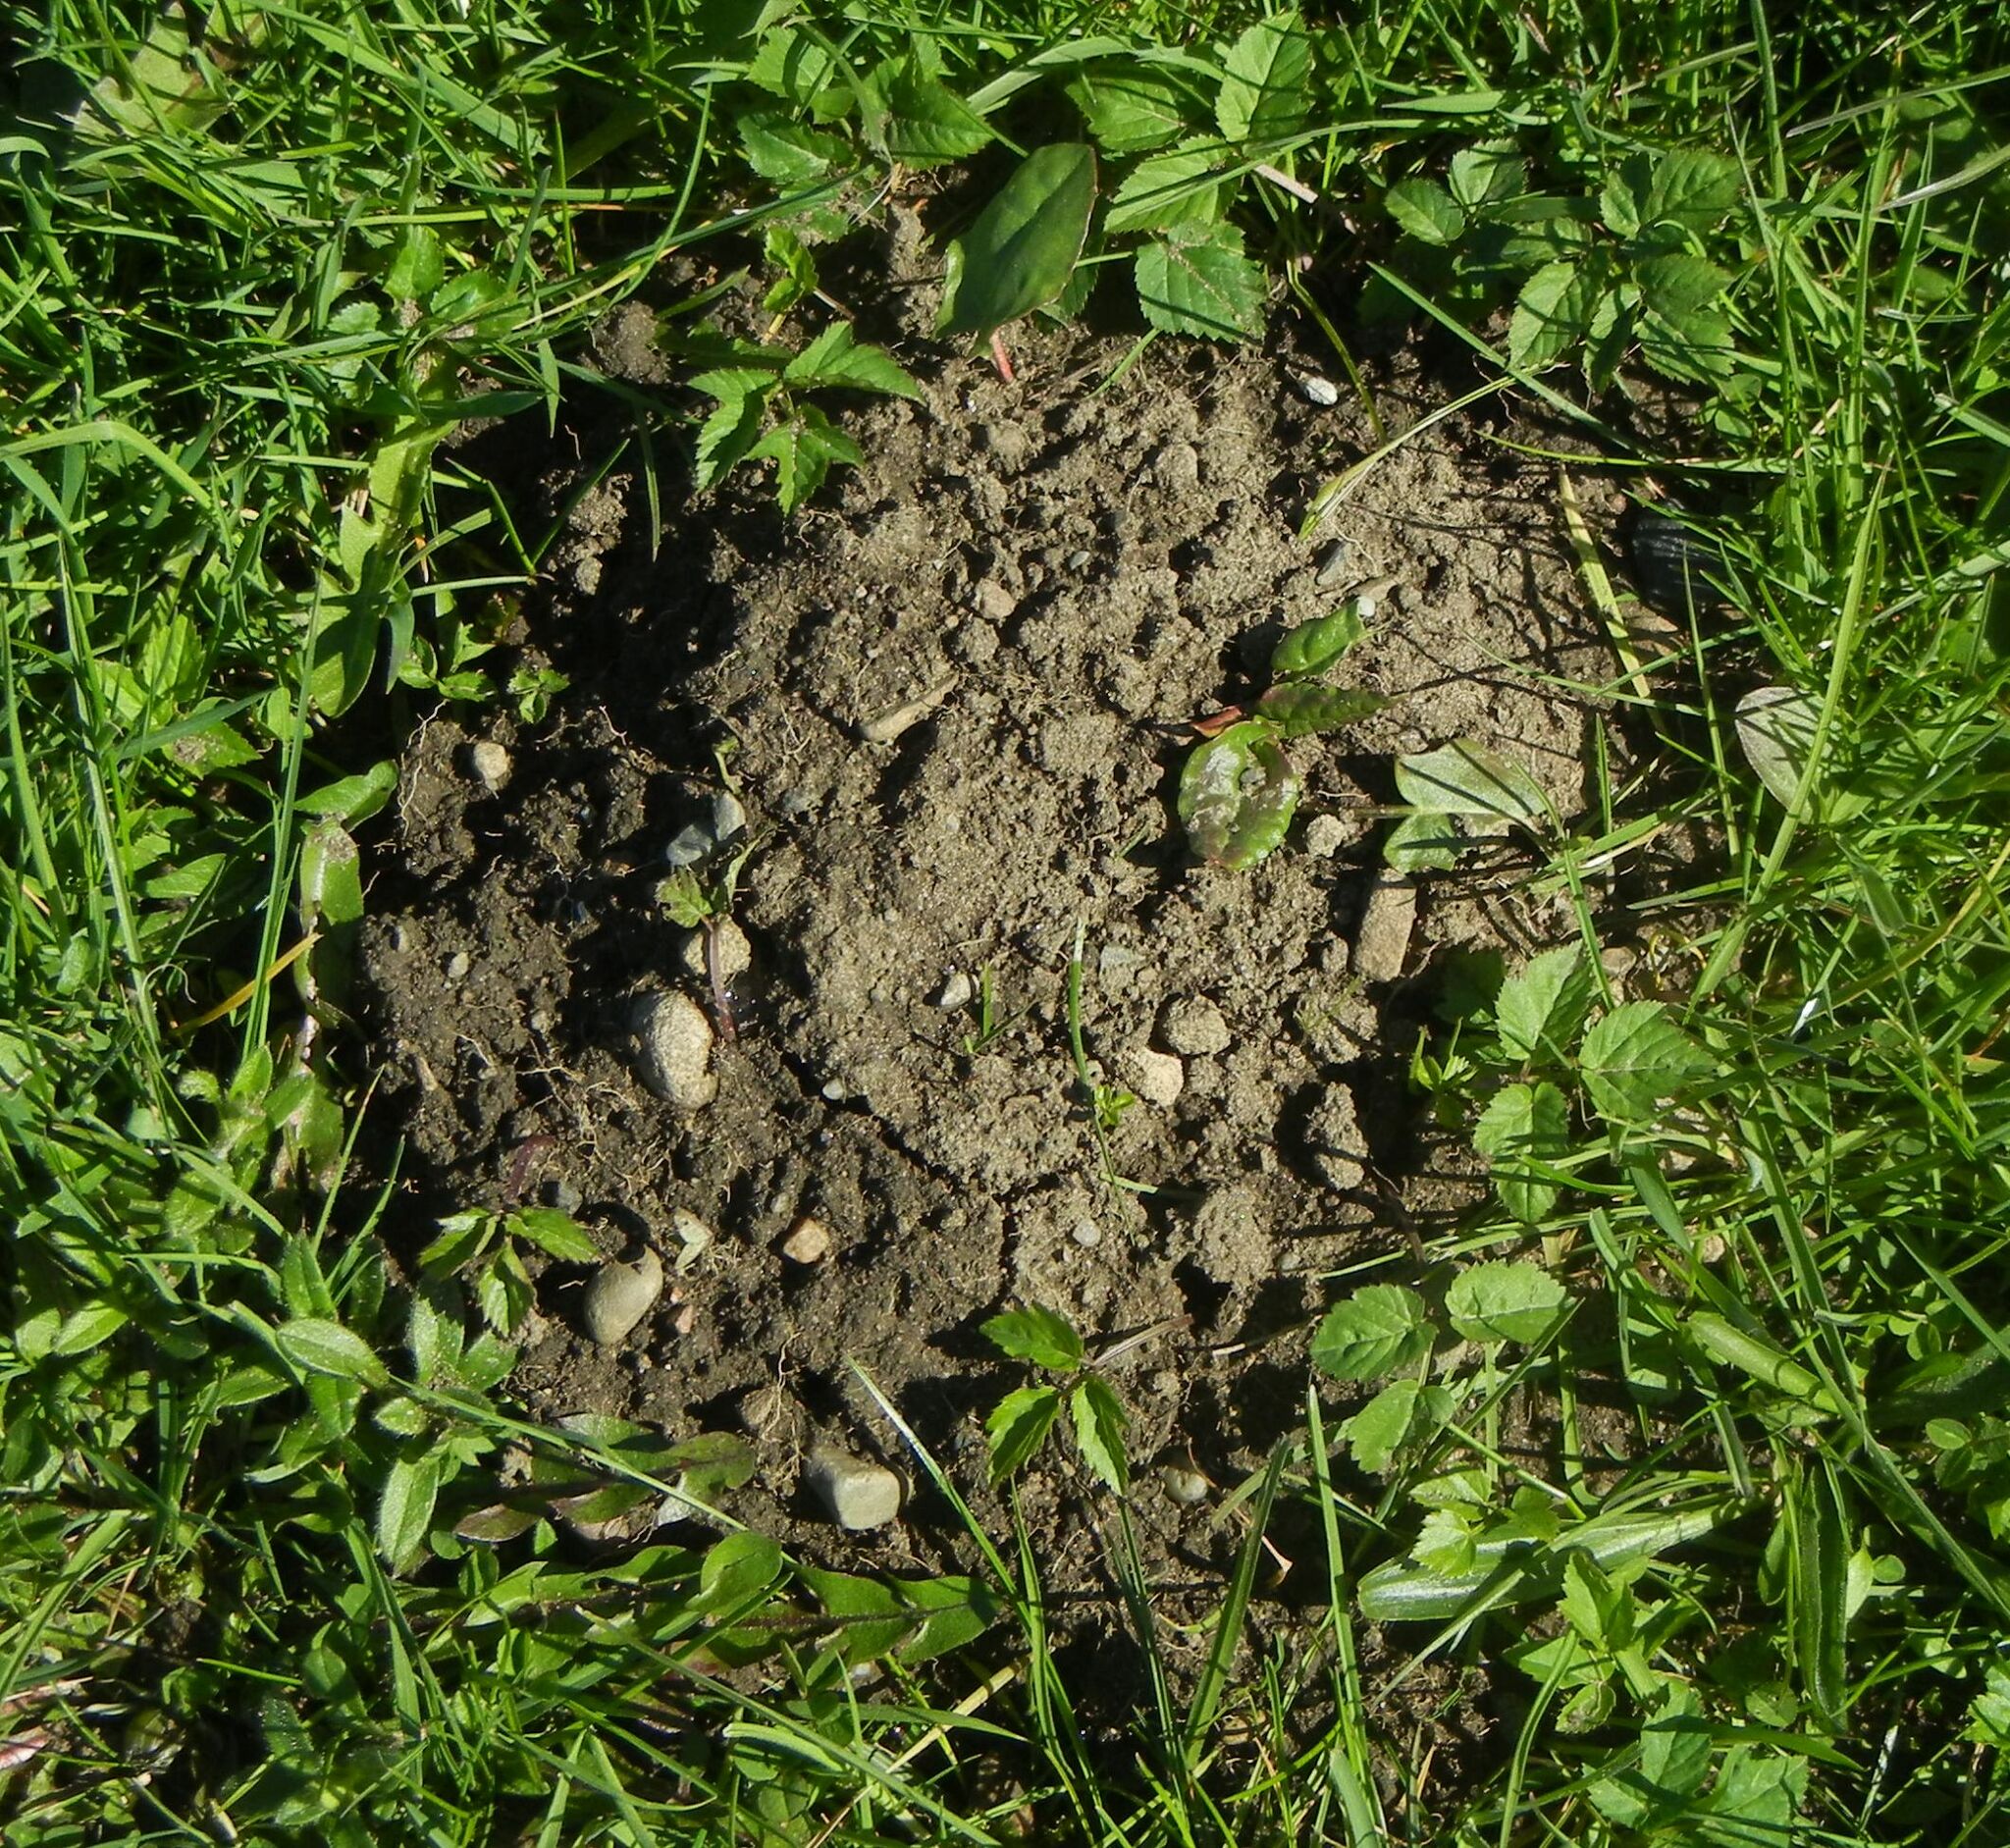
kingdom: Animalia
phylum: Chordata
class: Mammalia
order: Soricomorpha
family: Talpidae
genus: Talpa
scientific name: Talpa europaea
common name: European mole
